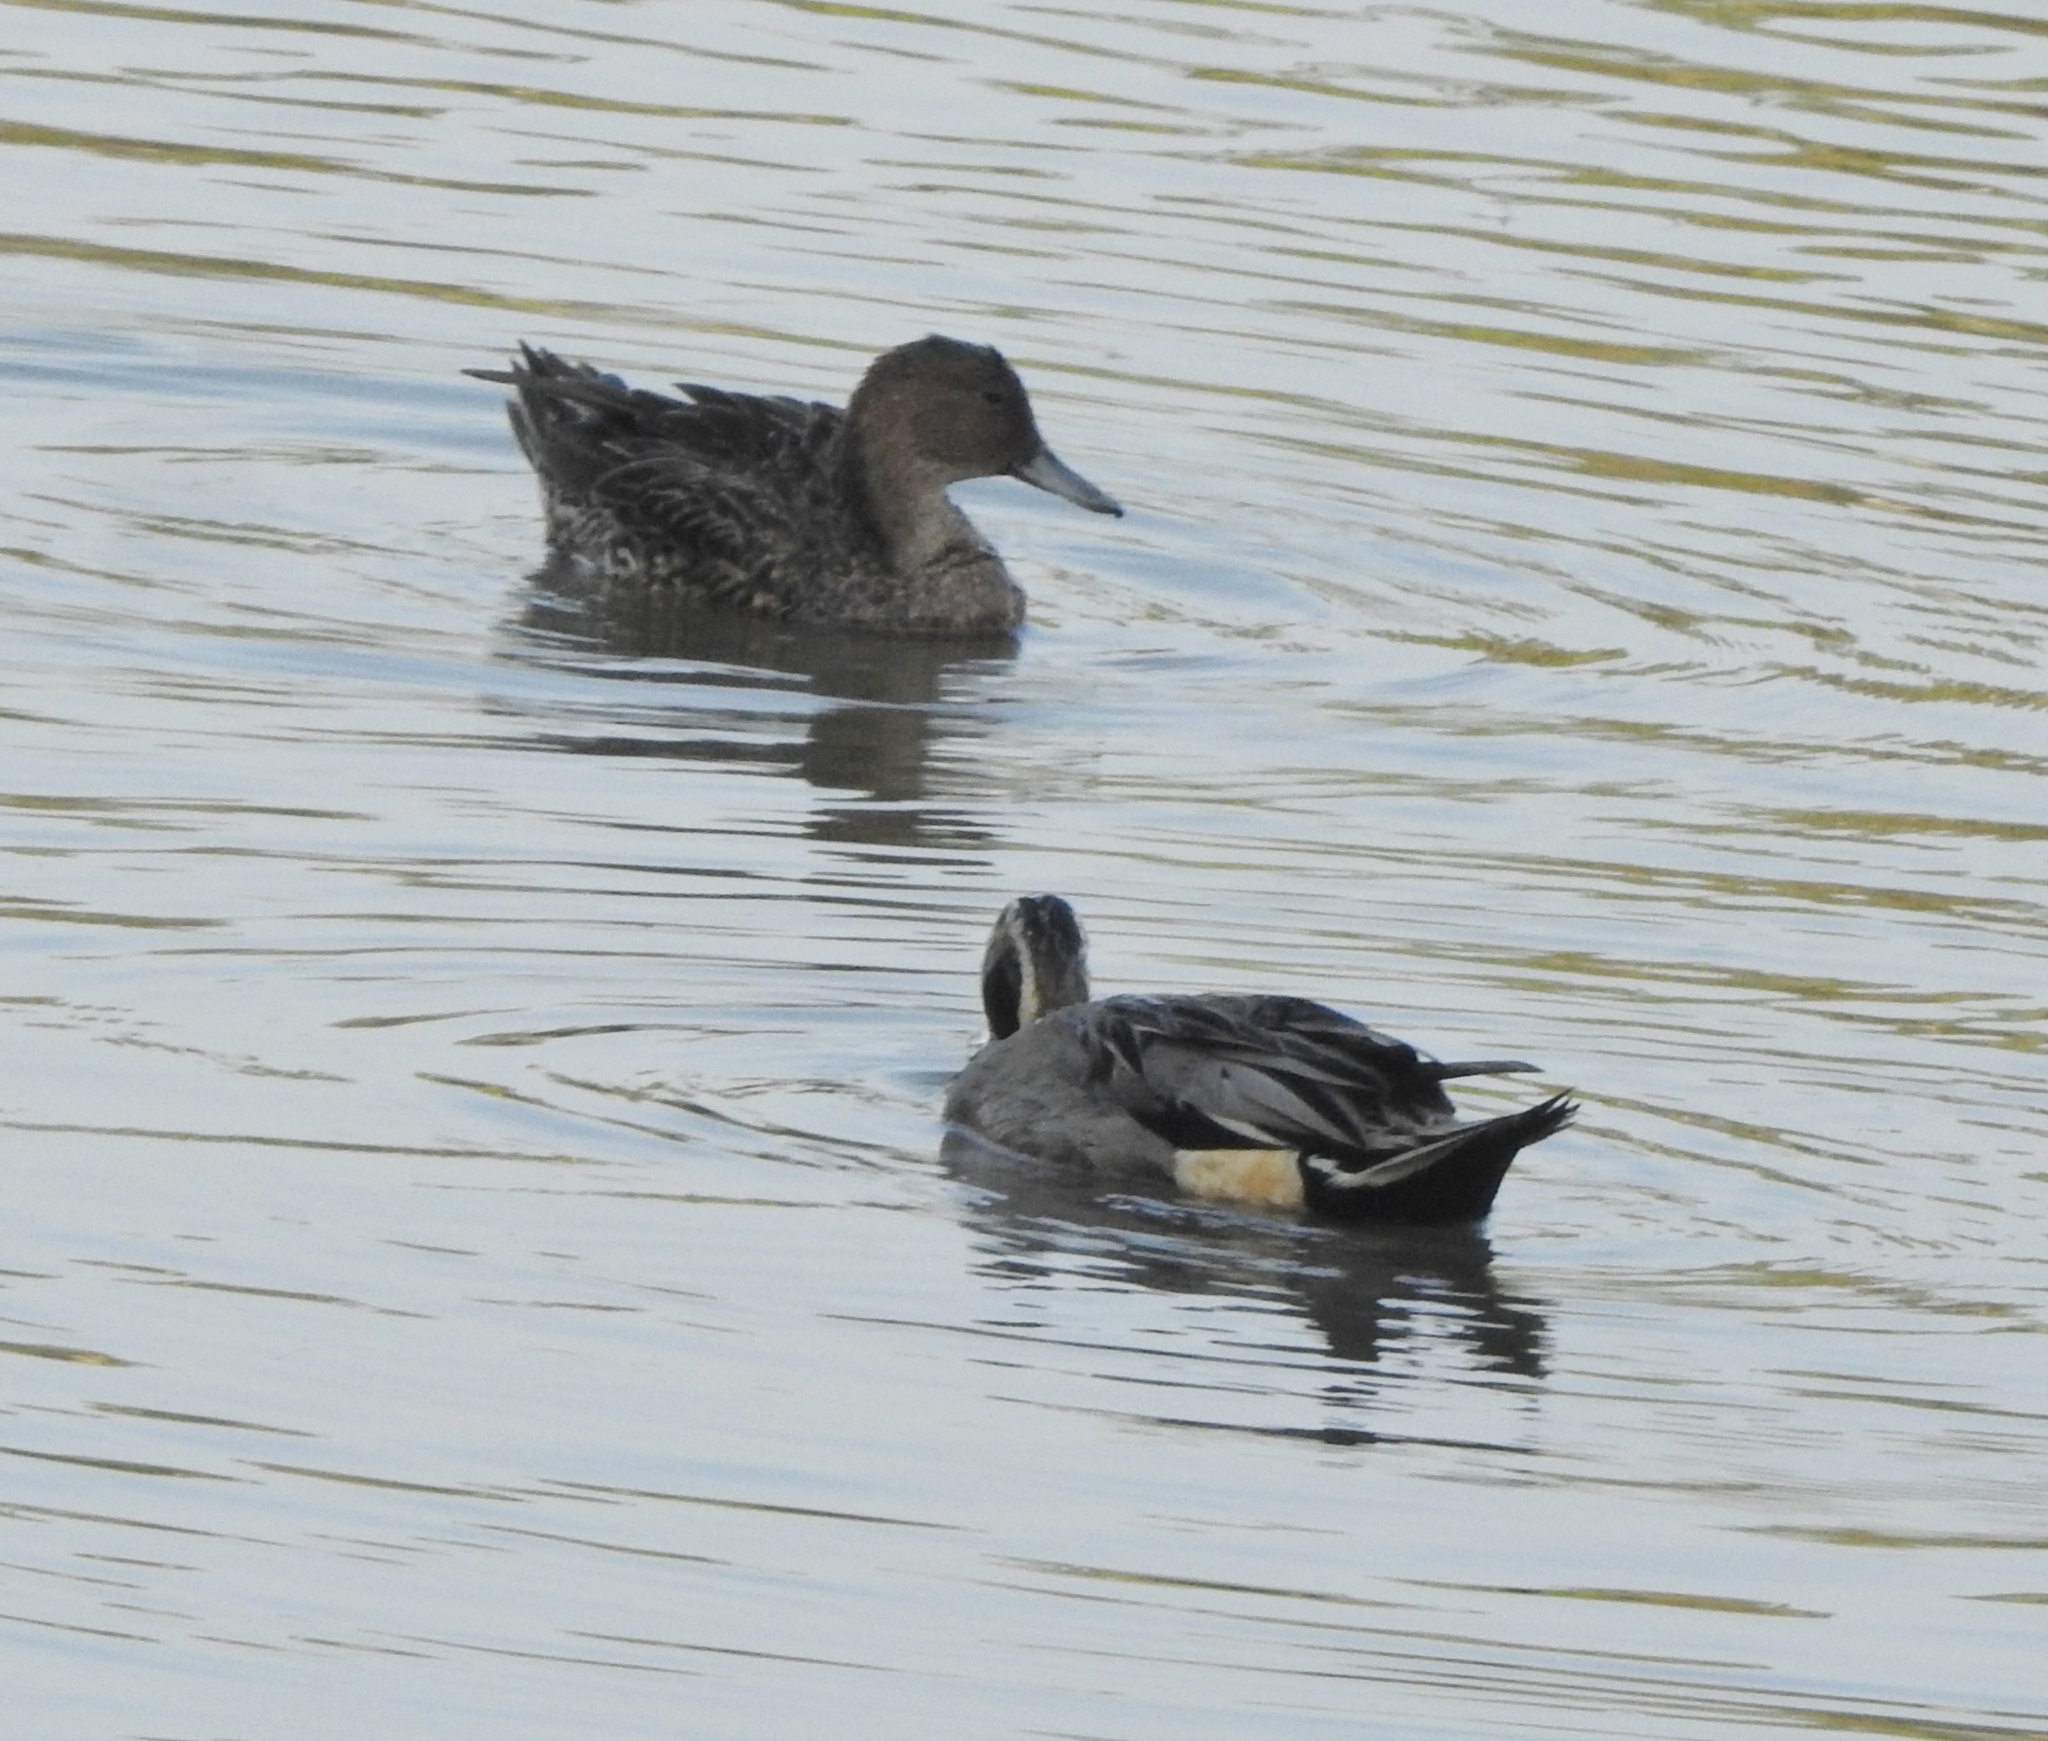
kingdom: Animalia
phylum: Chordata
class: Aves
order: Anseriformes
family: Anatidae
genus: Anas
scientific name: Anas acuta
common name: Northern pintail
